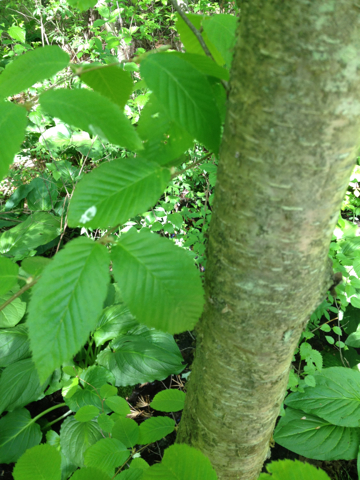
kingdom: Plantae
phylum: Tracheophyta
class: Magnoliopsida
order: Fagales
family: Betulaceae
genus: Betula
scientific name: Betula alleghaniensis
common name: Yellow birch
